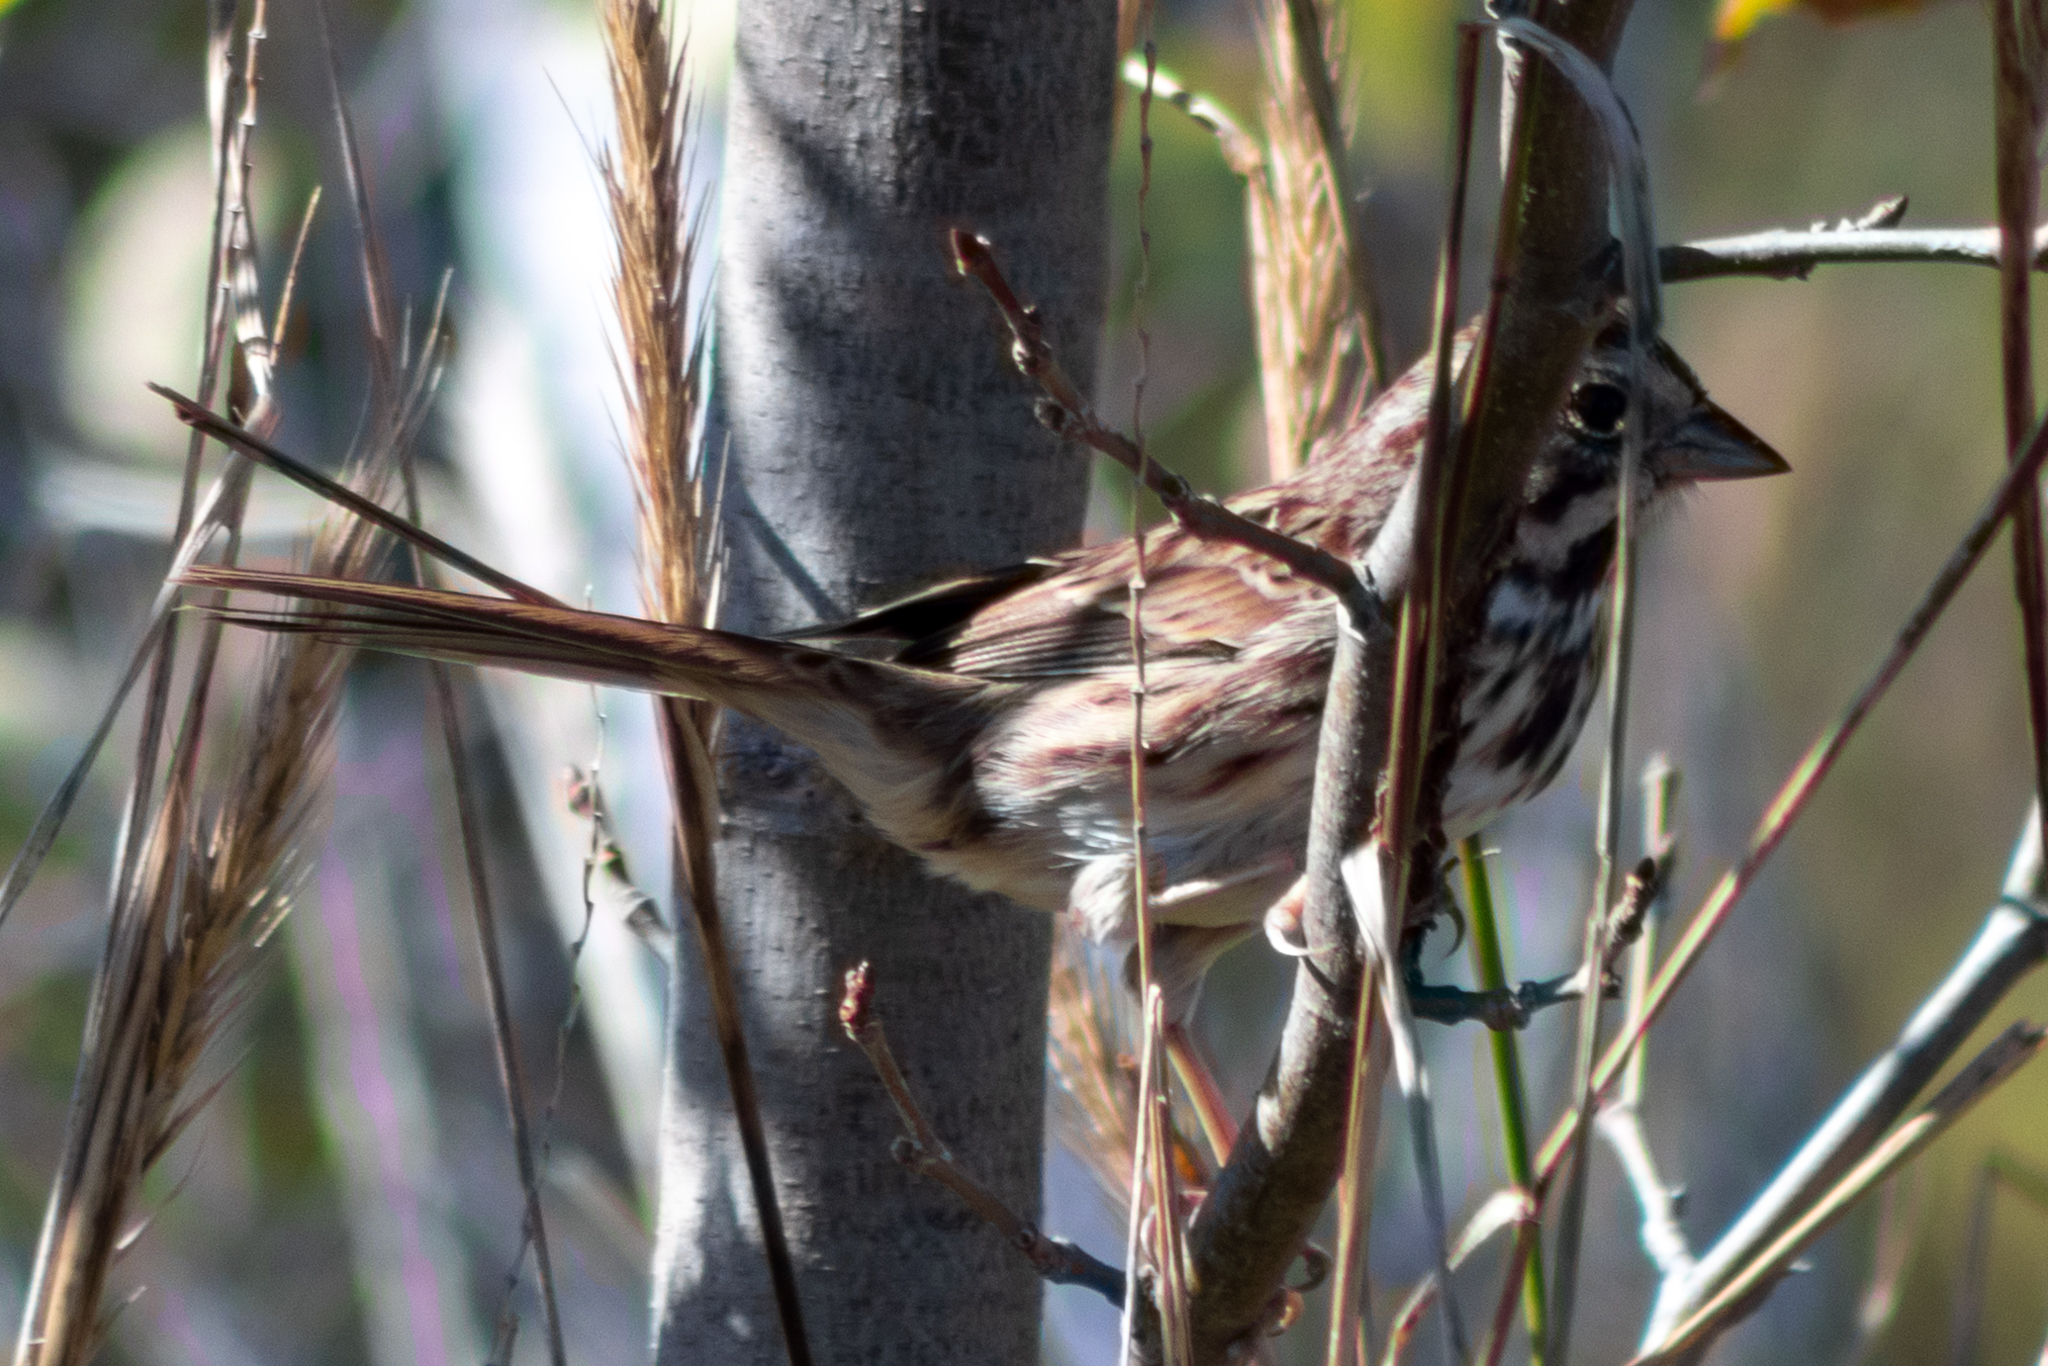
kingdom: Animalia
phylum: Chordata
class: Aves
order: Passeriformes
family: Passerellidae
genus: Melospiza
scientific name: Melospiza melodia
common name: Song sparrow
